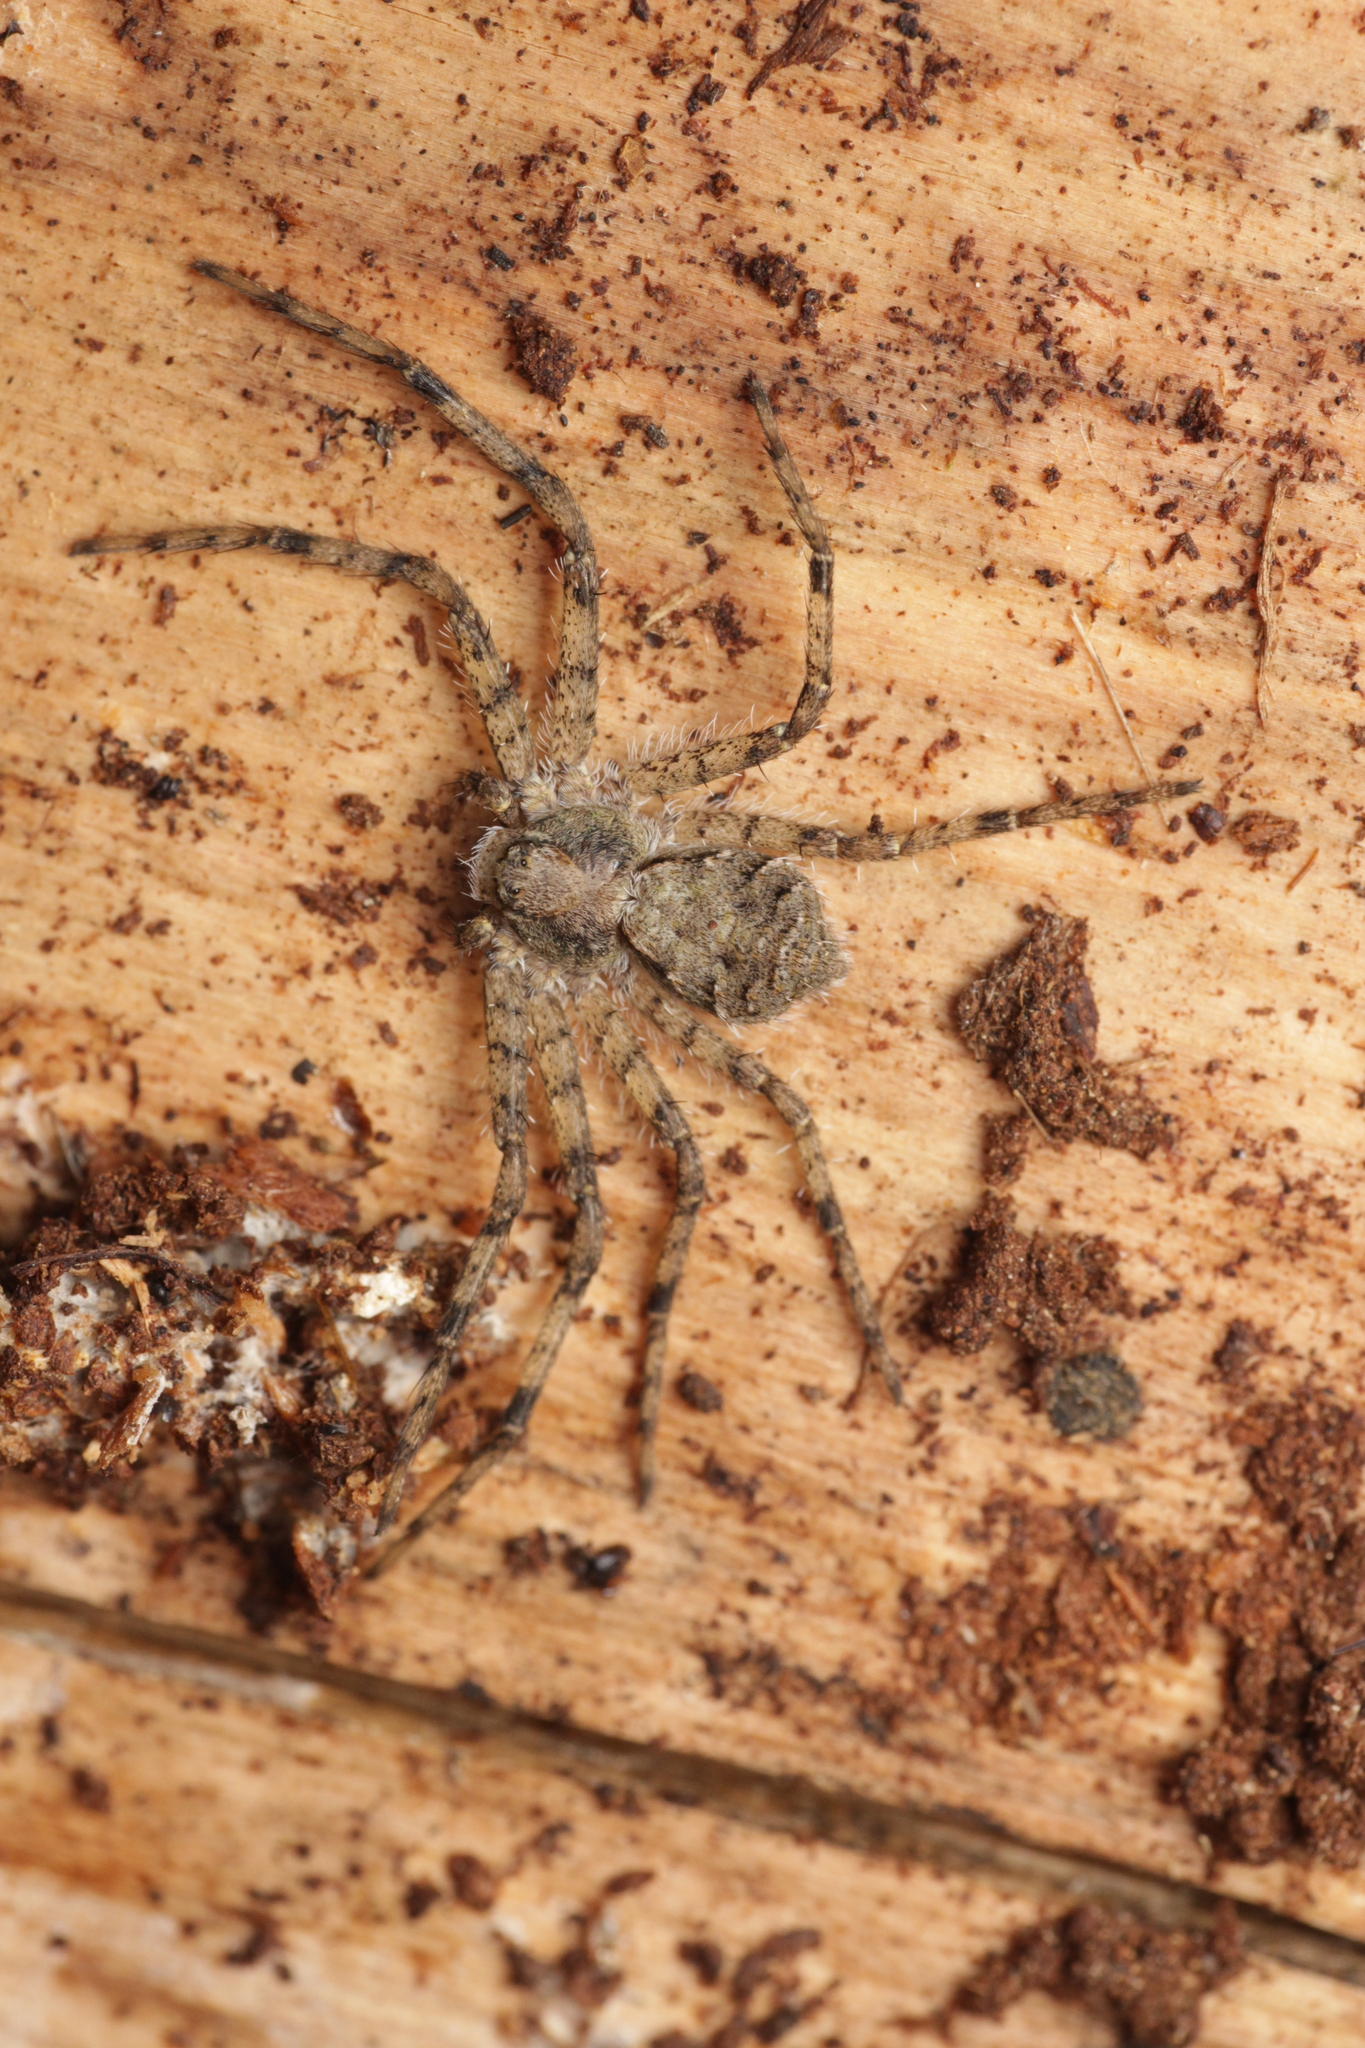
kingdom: Animalia
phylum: Arthropoda
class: Arachnida
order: Araneae
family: Philodromidae
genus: Philodromus
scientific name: Philodromus margaritatus
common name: Lichen running-spider
